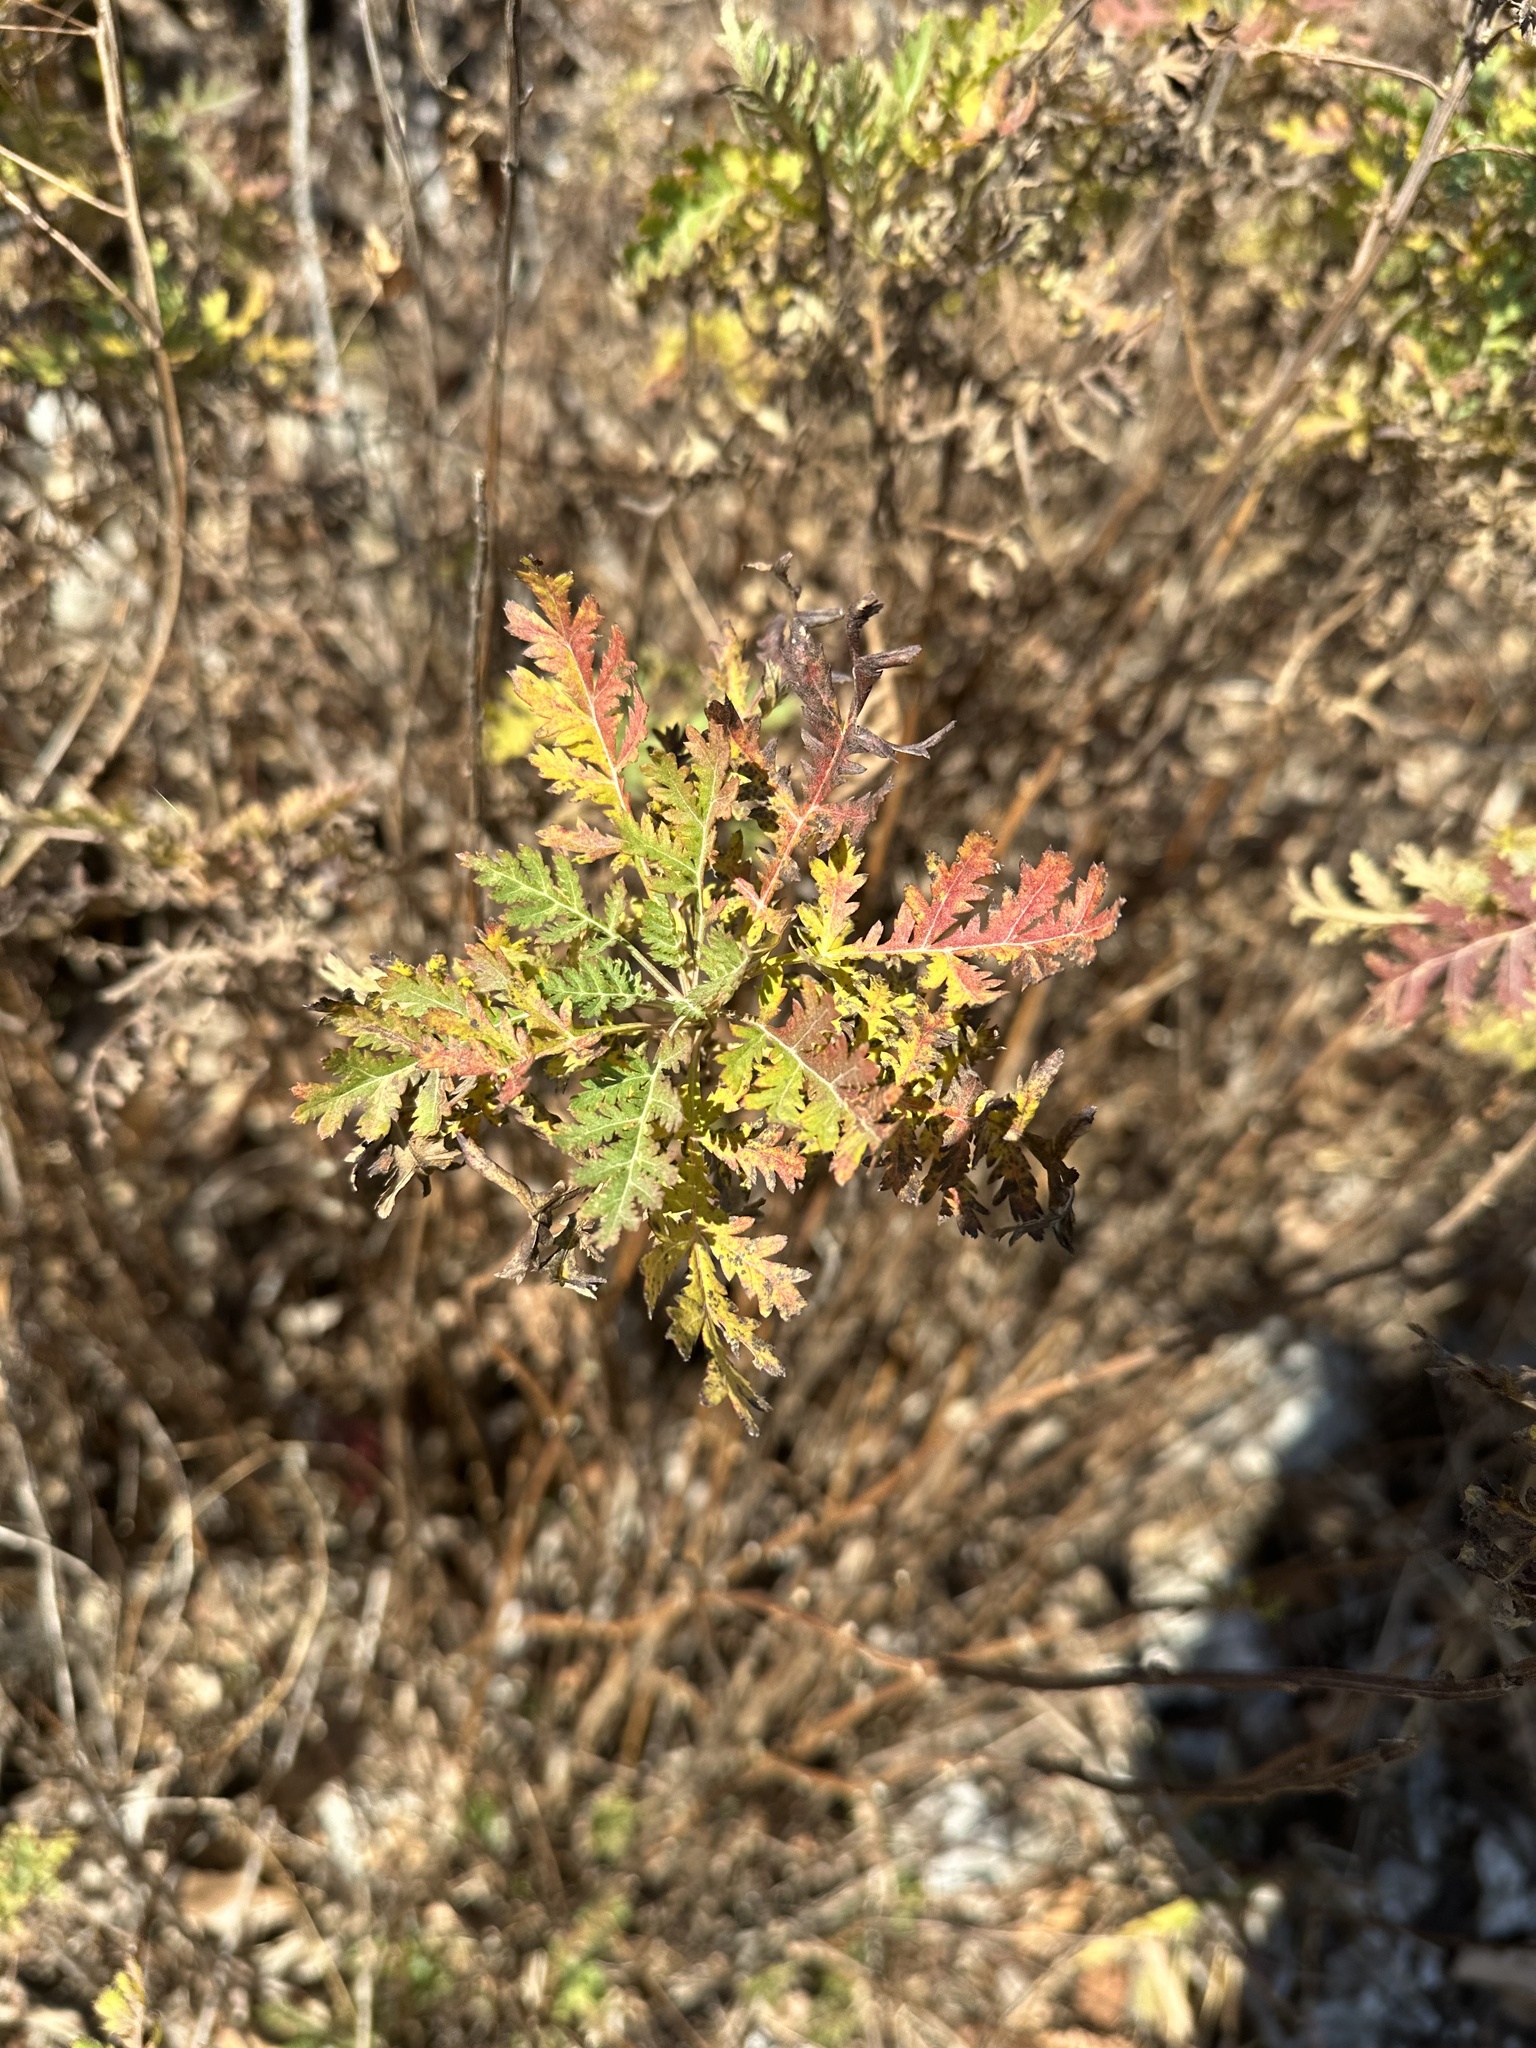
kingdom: Plantae
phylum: Tracheophyta
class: Magnoliopsida
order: Asterales
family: Asteraceae
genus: Artemisia
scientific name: Artemisia gmelinii
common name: Gmelin's wormwood
